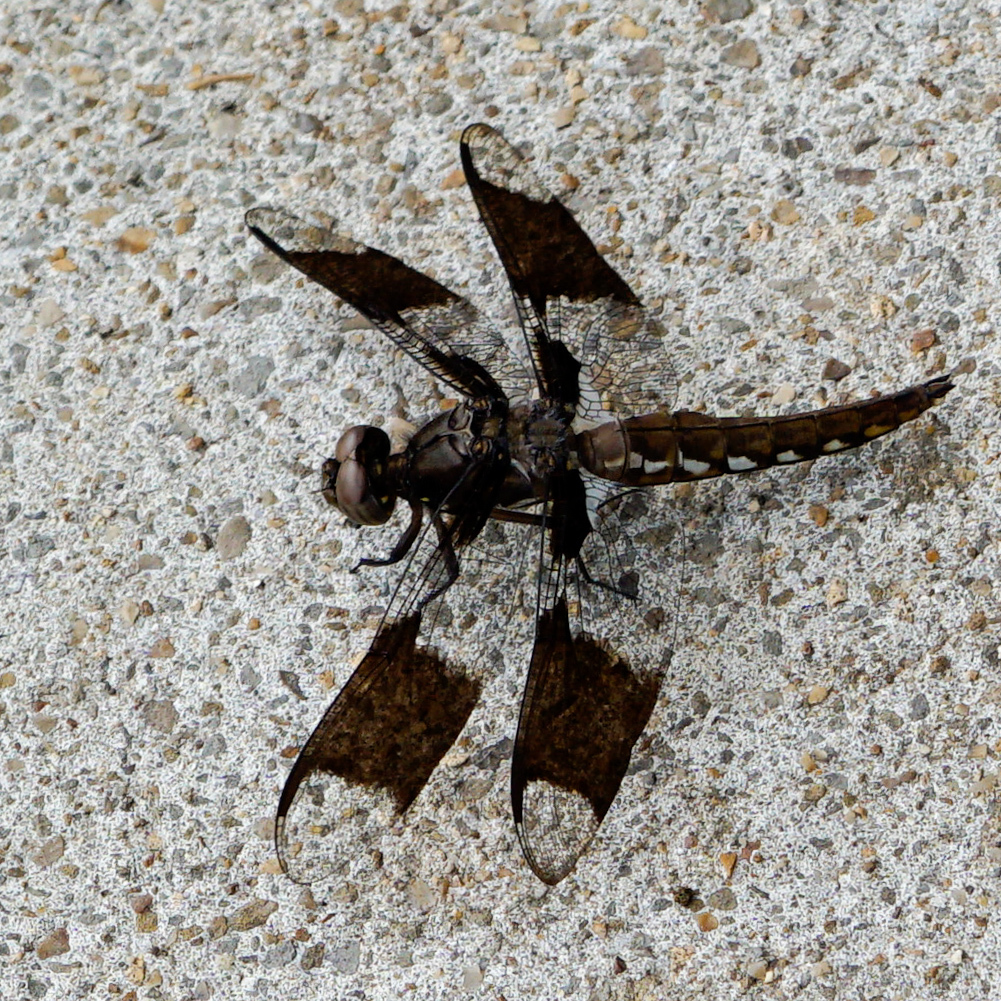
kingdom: Animalia
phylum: Arthropoda
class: Insecta
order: Odonata
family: Libellulidae
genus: Plathemis
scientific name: Plathemis lydia
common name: Common whitetail
